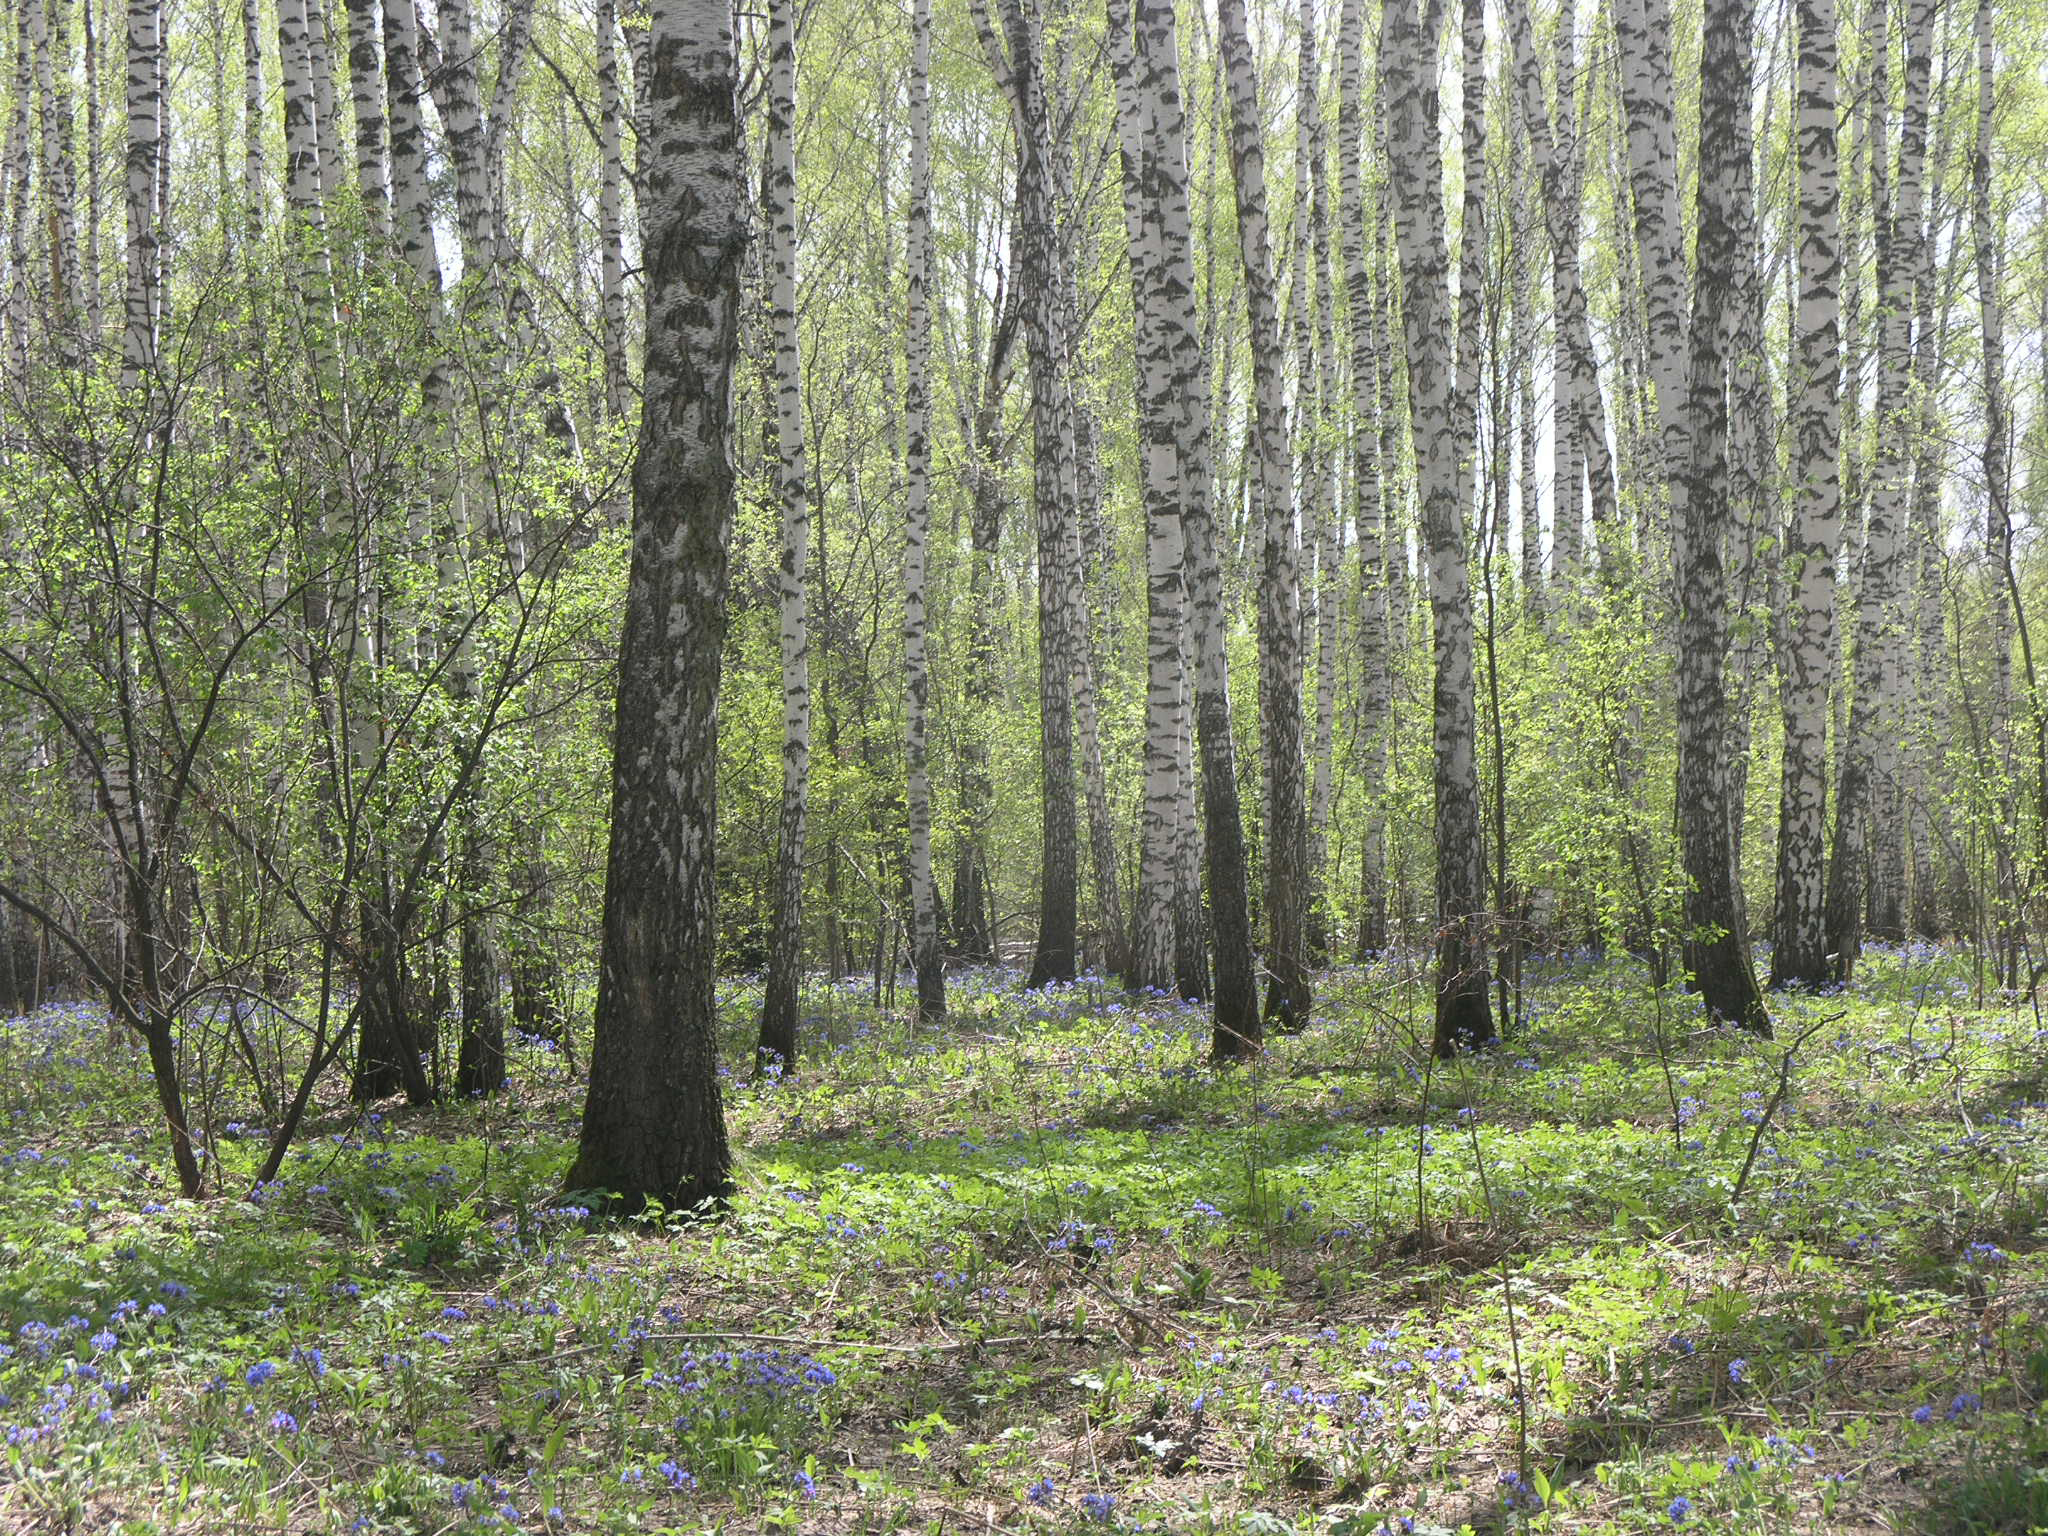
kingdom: Plantae
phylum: Tracheophyta
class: Magnoliopsida
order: Boraginales
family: Boraginaceae
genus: Pulmonaria
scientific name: Pulmonaria mollis
